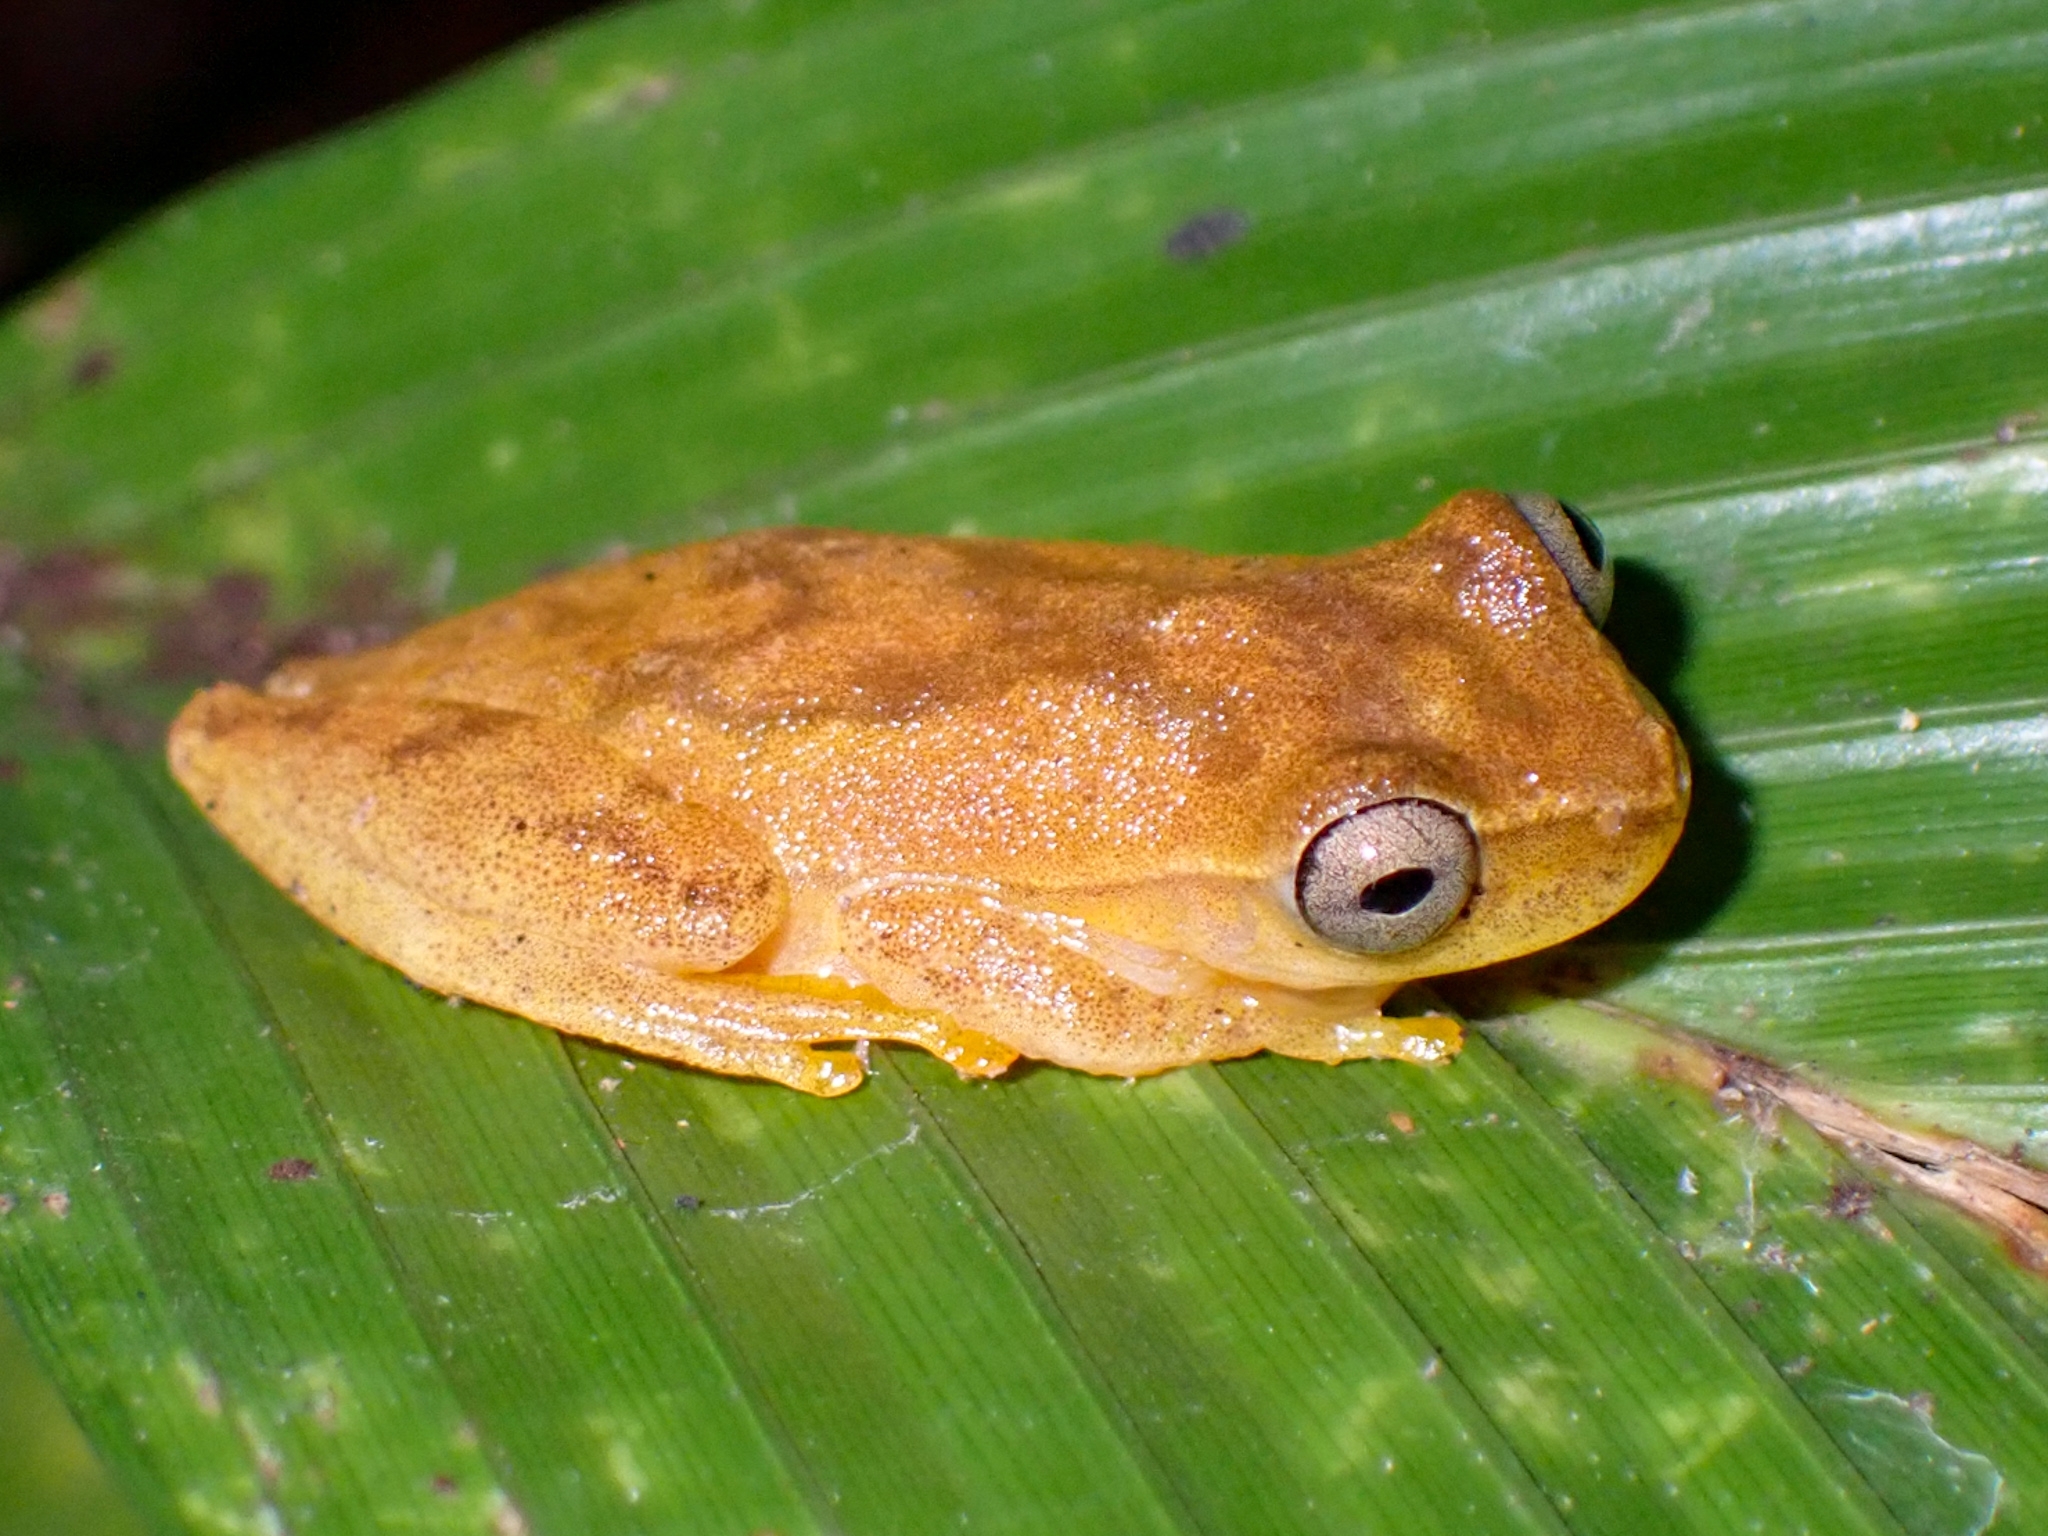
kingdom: Animalia
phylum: Chordata
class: Amphibia
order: Anura
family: Hylidae
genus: Dendropsophus
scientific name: Dendropsophus microcephalus
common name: Small-headed treefrog
